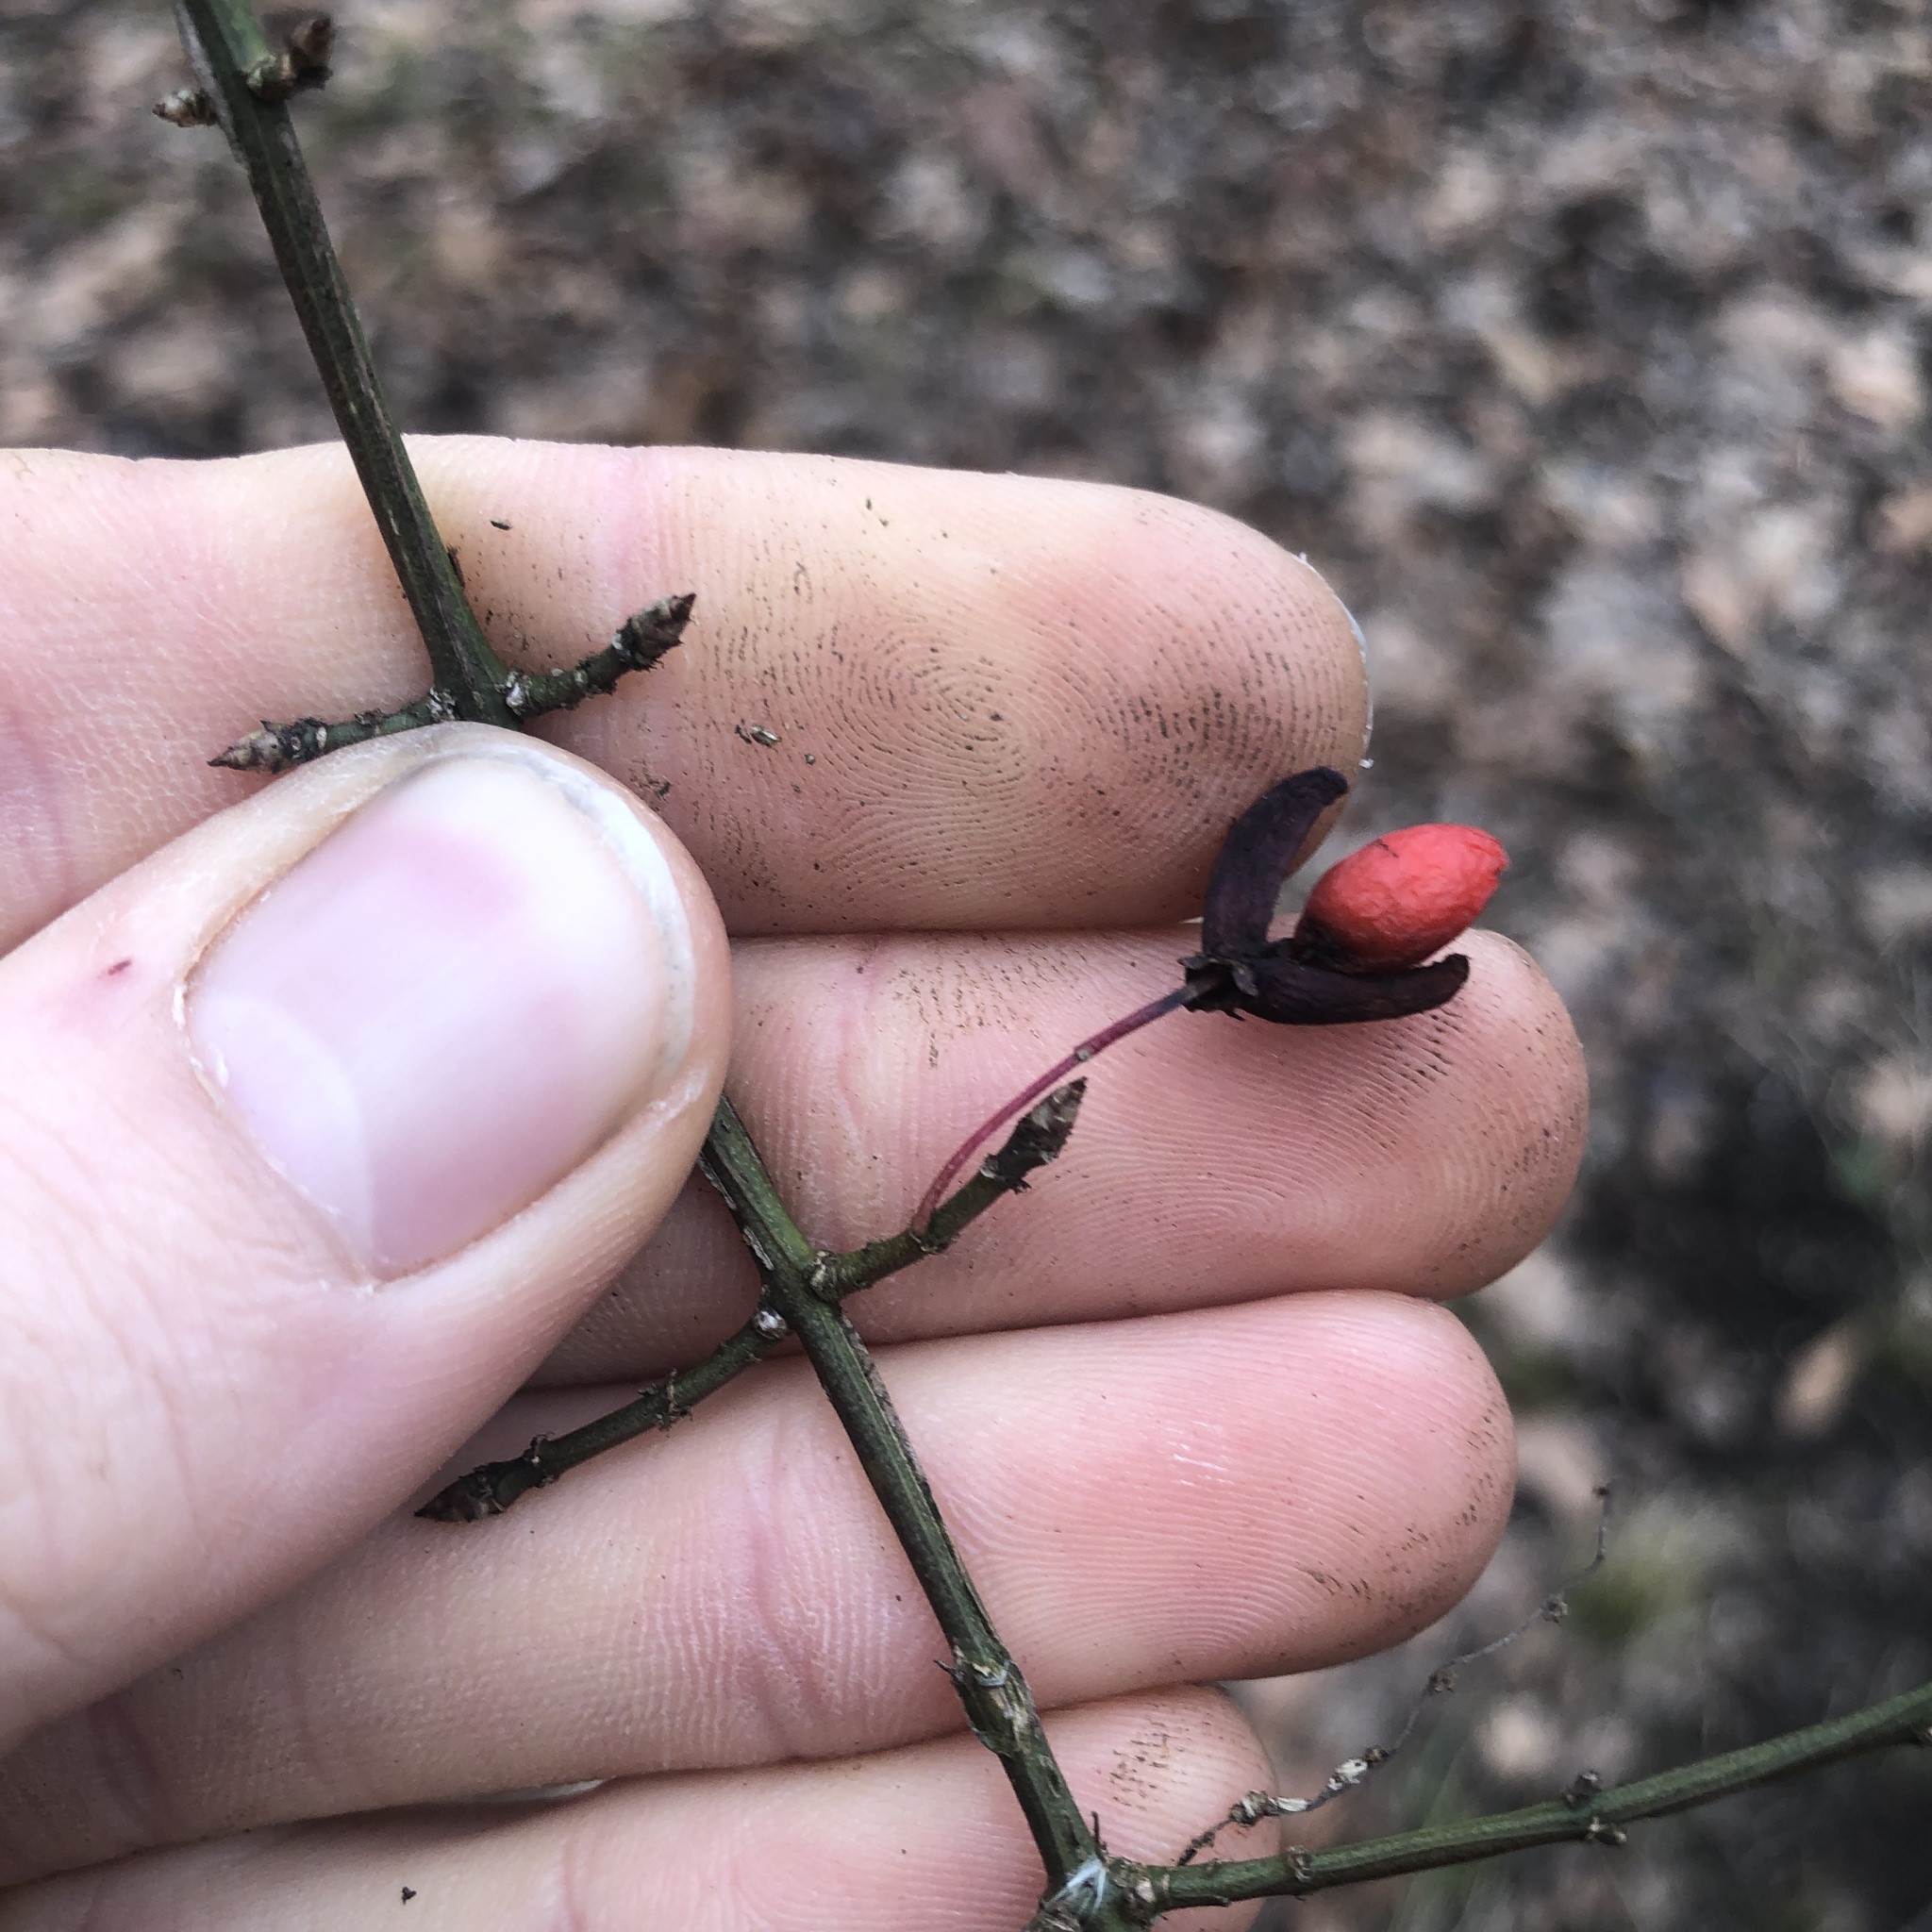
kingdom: Plantae
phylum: Tracheophyta
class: Magnoliopsida
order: Celastrales
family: Celastraceae
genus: Euonymus
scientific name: Euonymus alatus
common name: Winged euonymus
